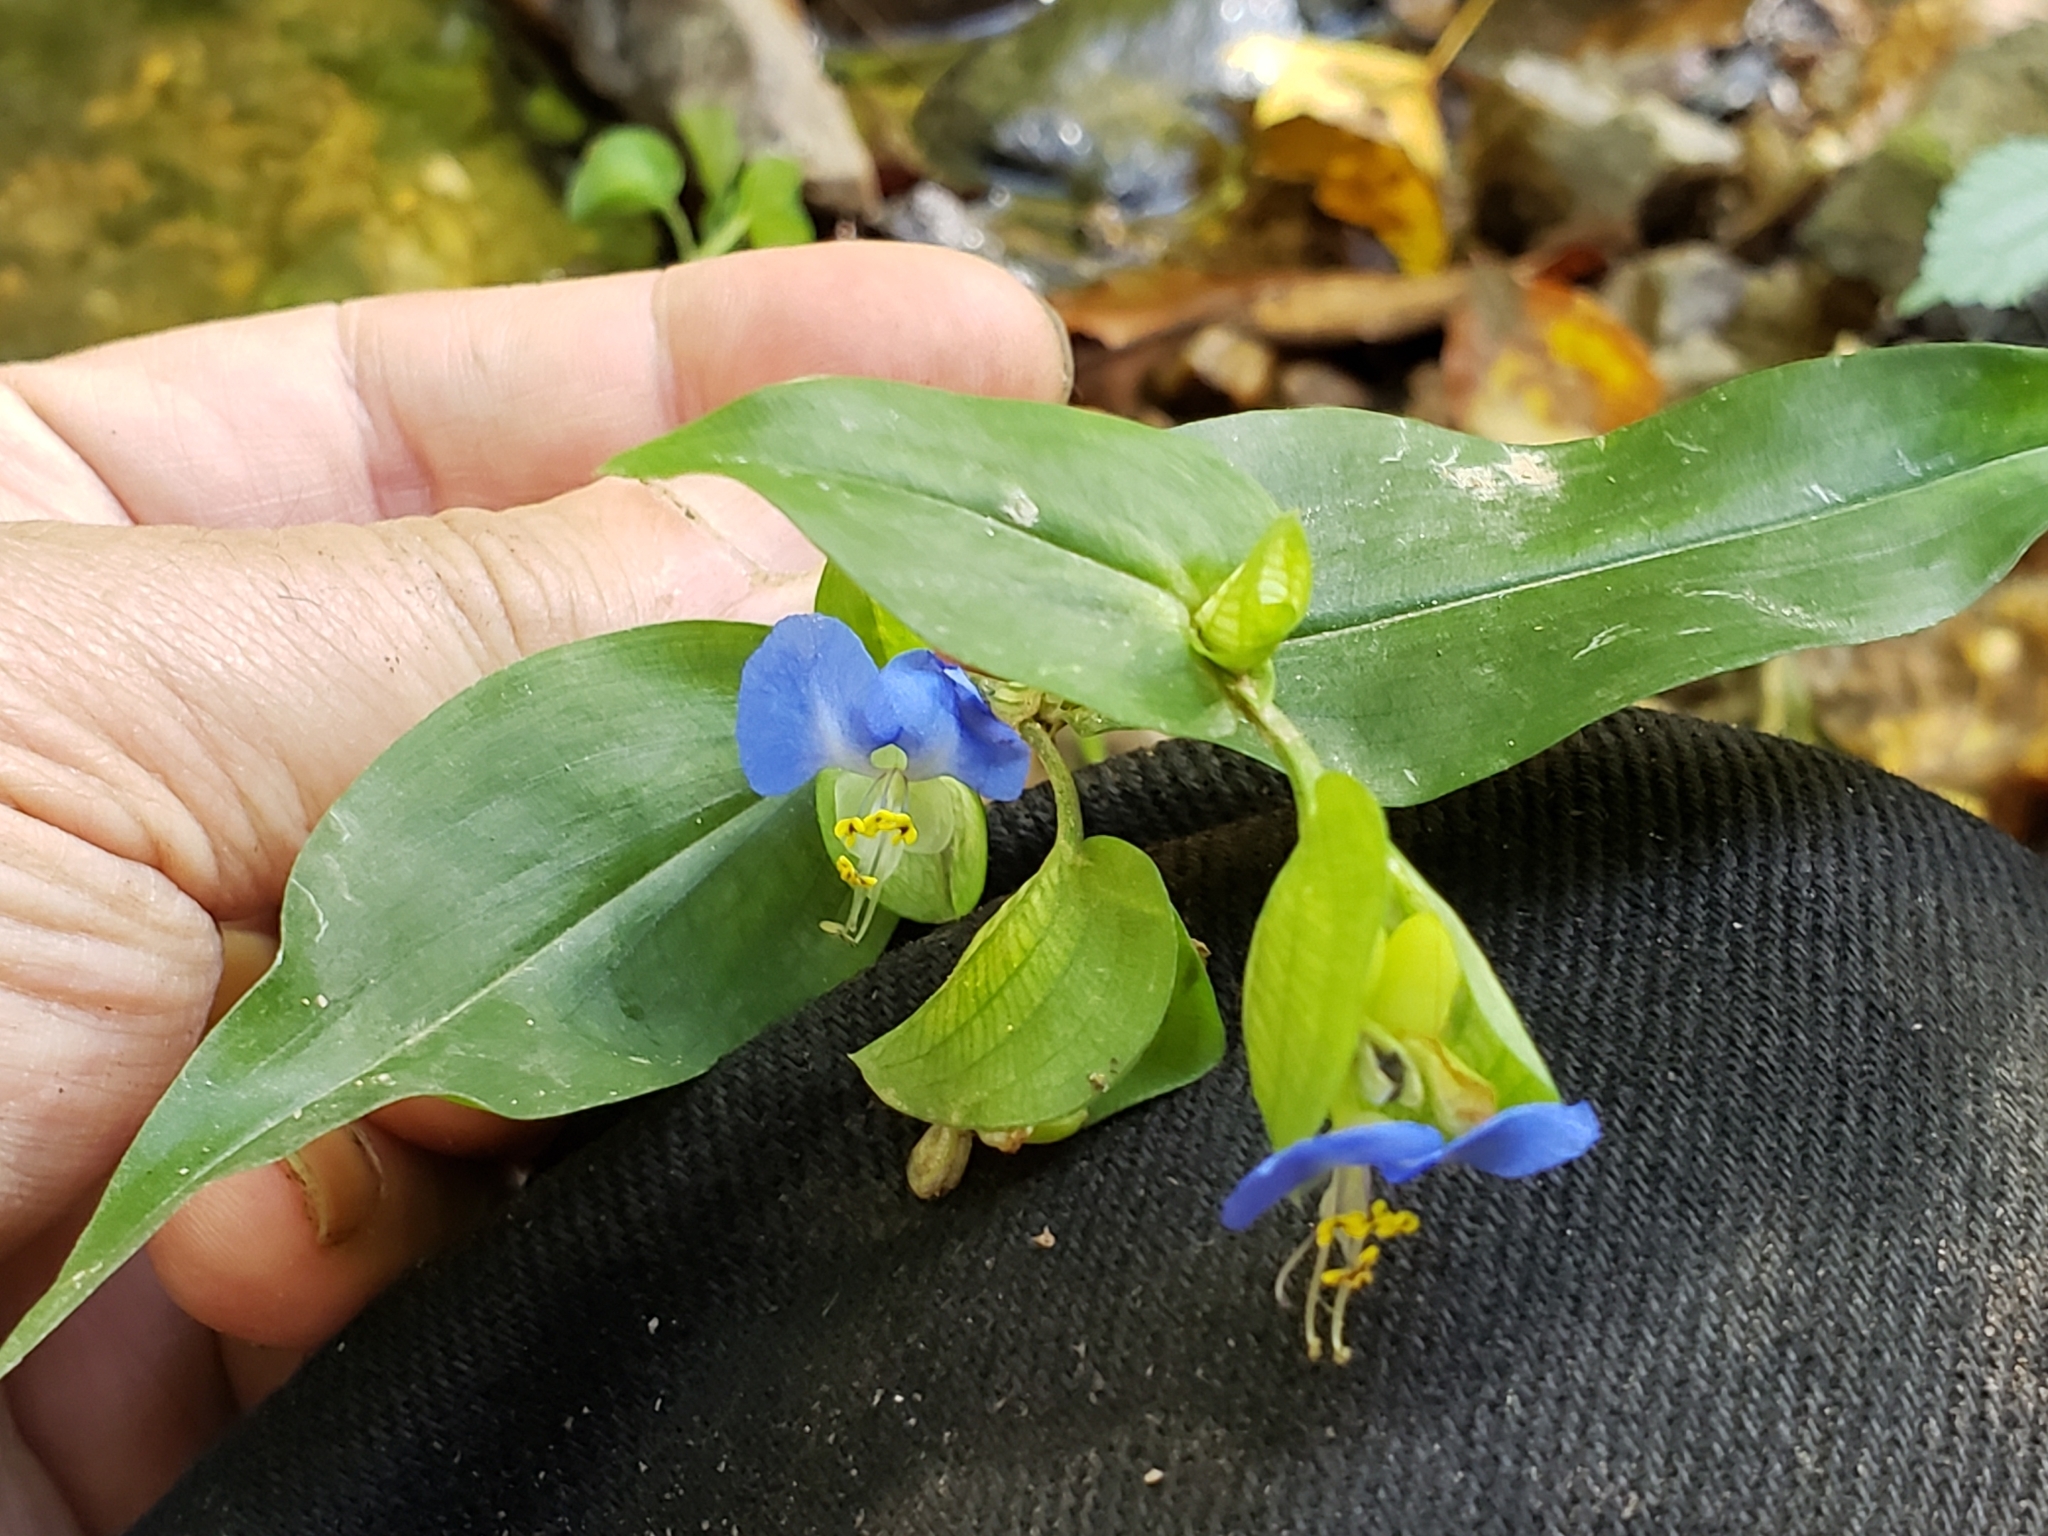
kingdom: Plantae
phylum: Tracheophyta
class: Liliopsida
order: Commelinales
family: Commelinaceae
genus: Commelina
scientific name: Commelina communis
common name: Asiatic dayflower
